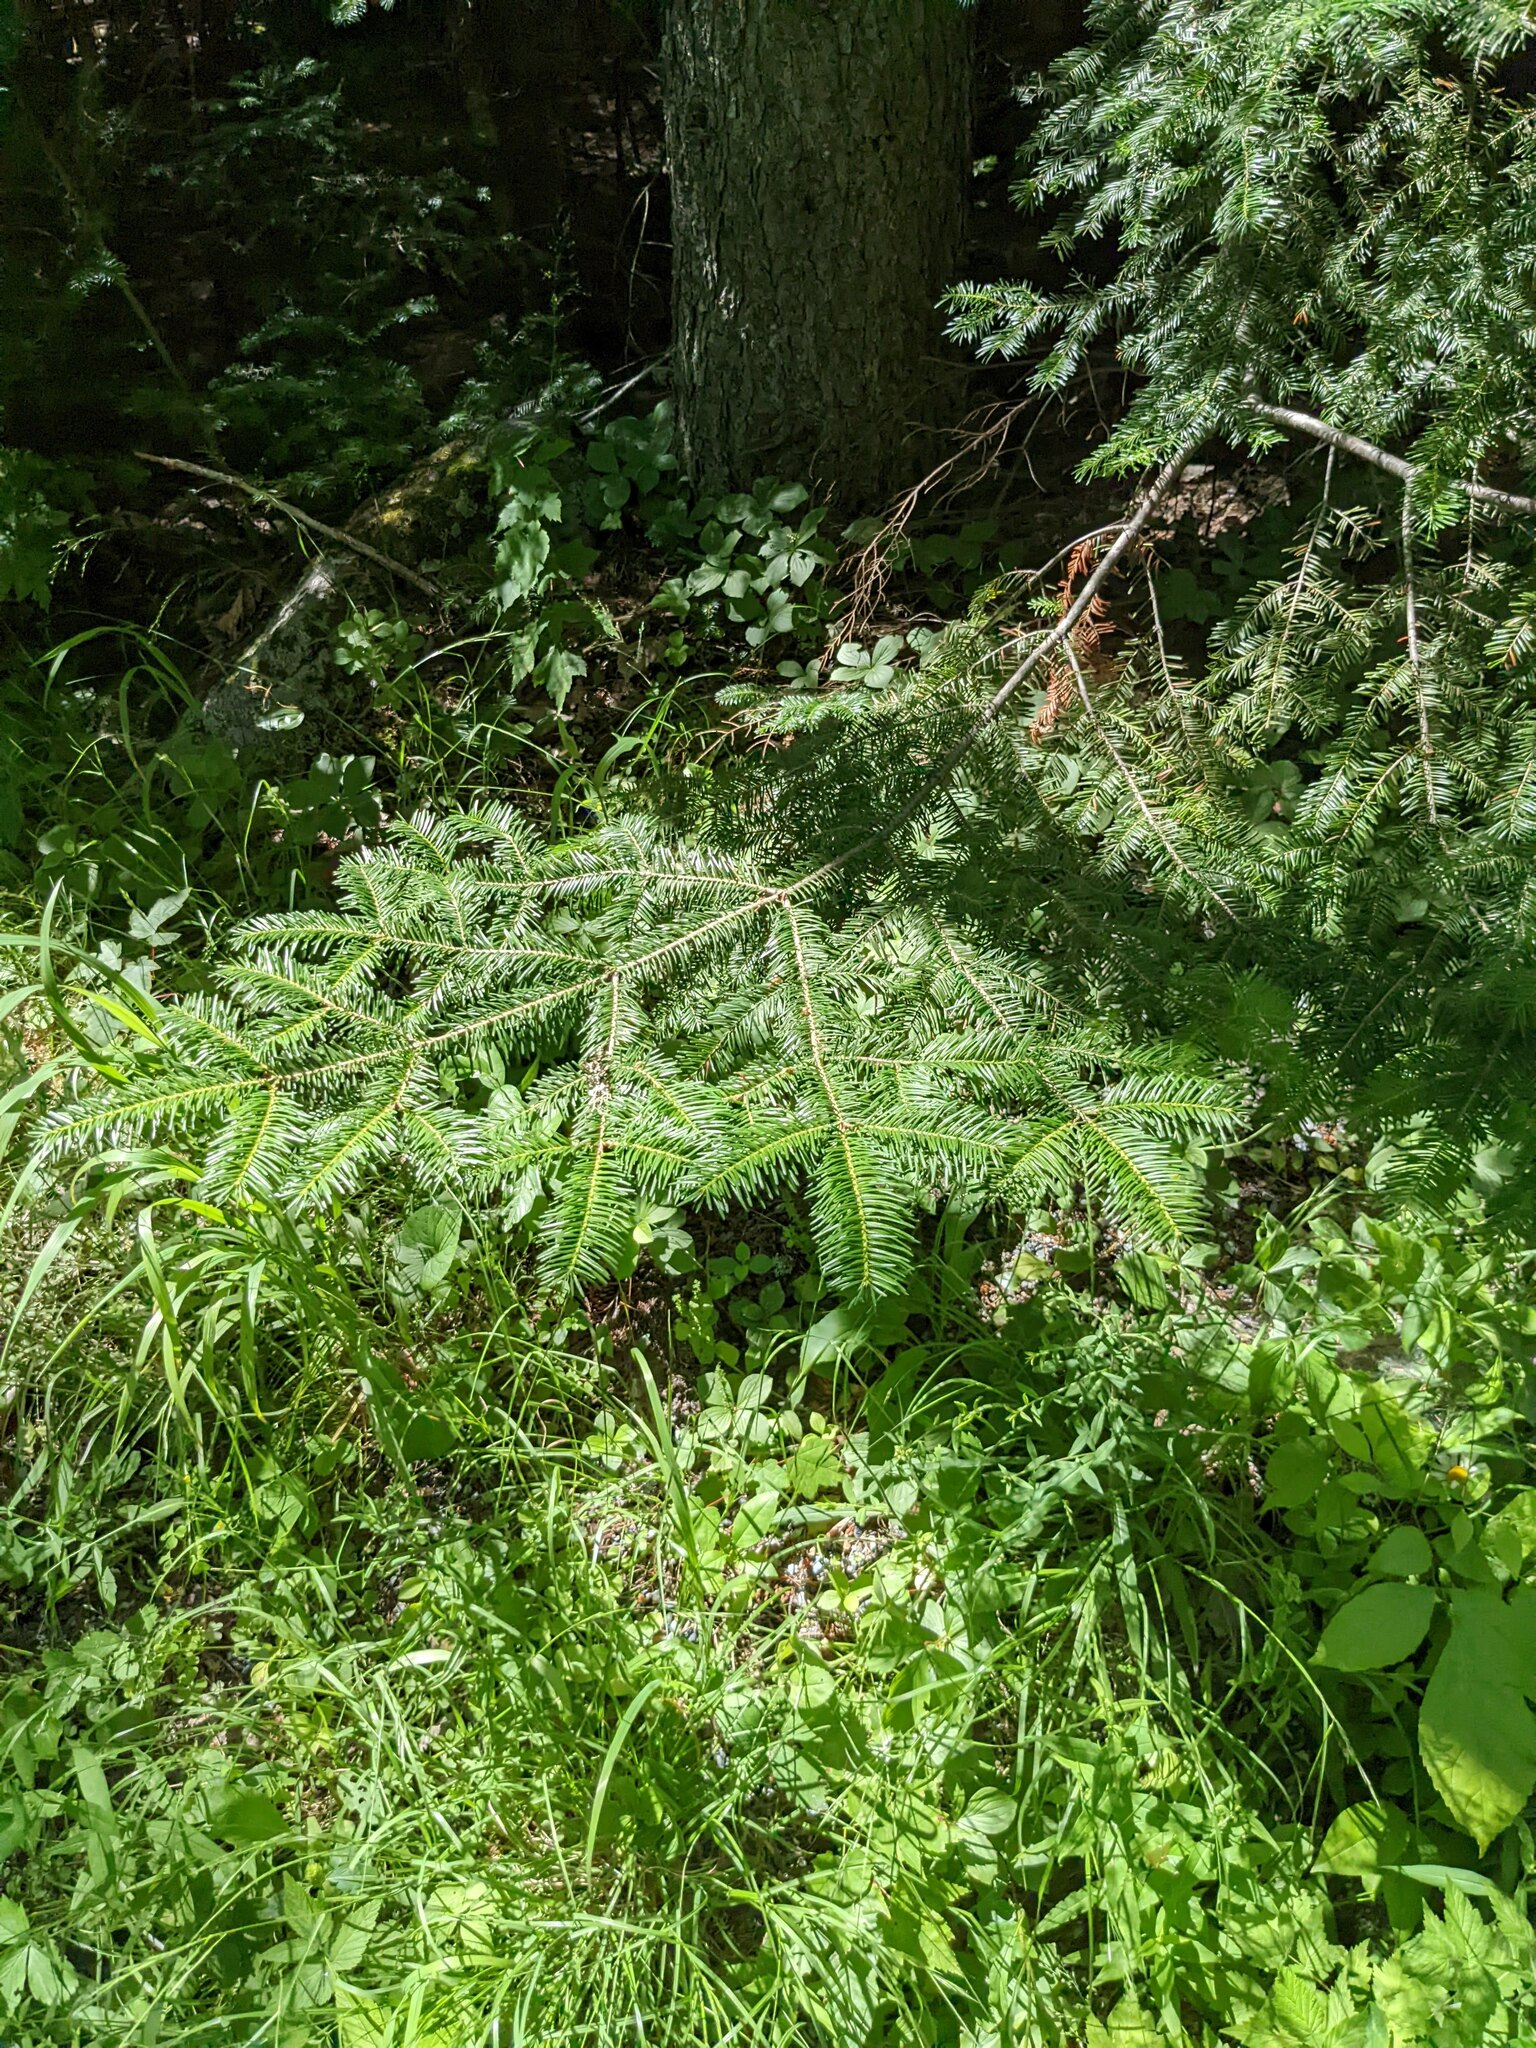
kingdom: Plantae
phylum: Tracheophyta
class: Pinopsida
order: Pinales
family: Pinaceae
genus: Abies
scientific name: Abies balsamea
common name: Balsam fir
